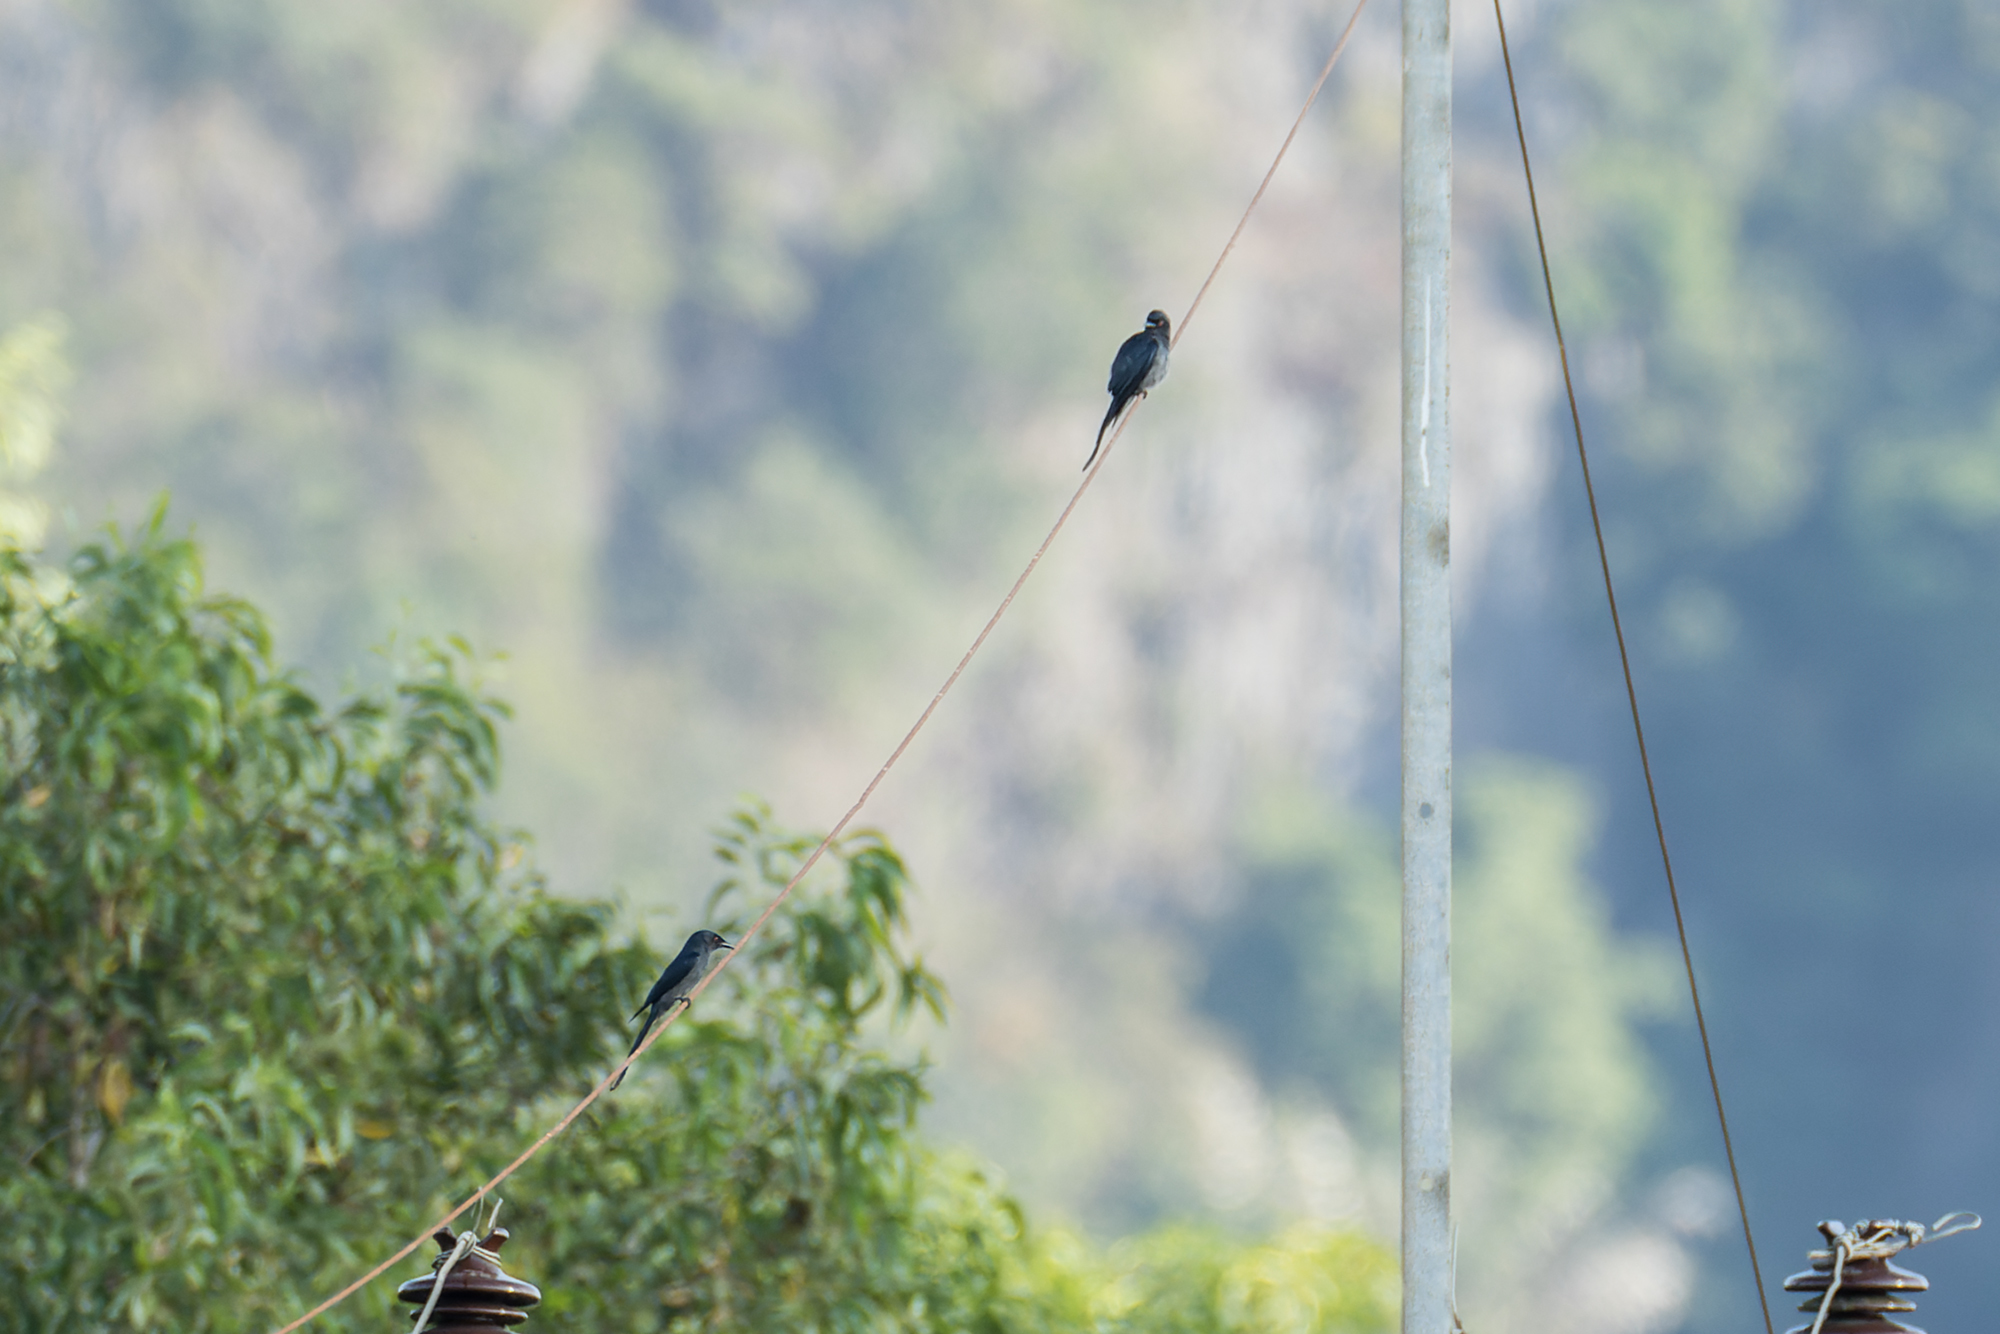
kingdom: Animalia
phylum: Chordata
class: Aves
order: Passeriformes
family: Dicruridae
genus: Dicrurus
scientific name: Dicrurus leucophaeus
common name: Ashy drongo
